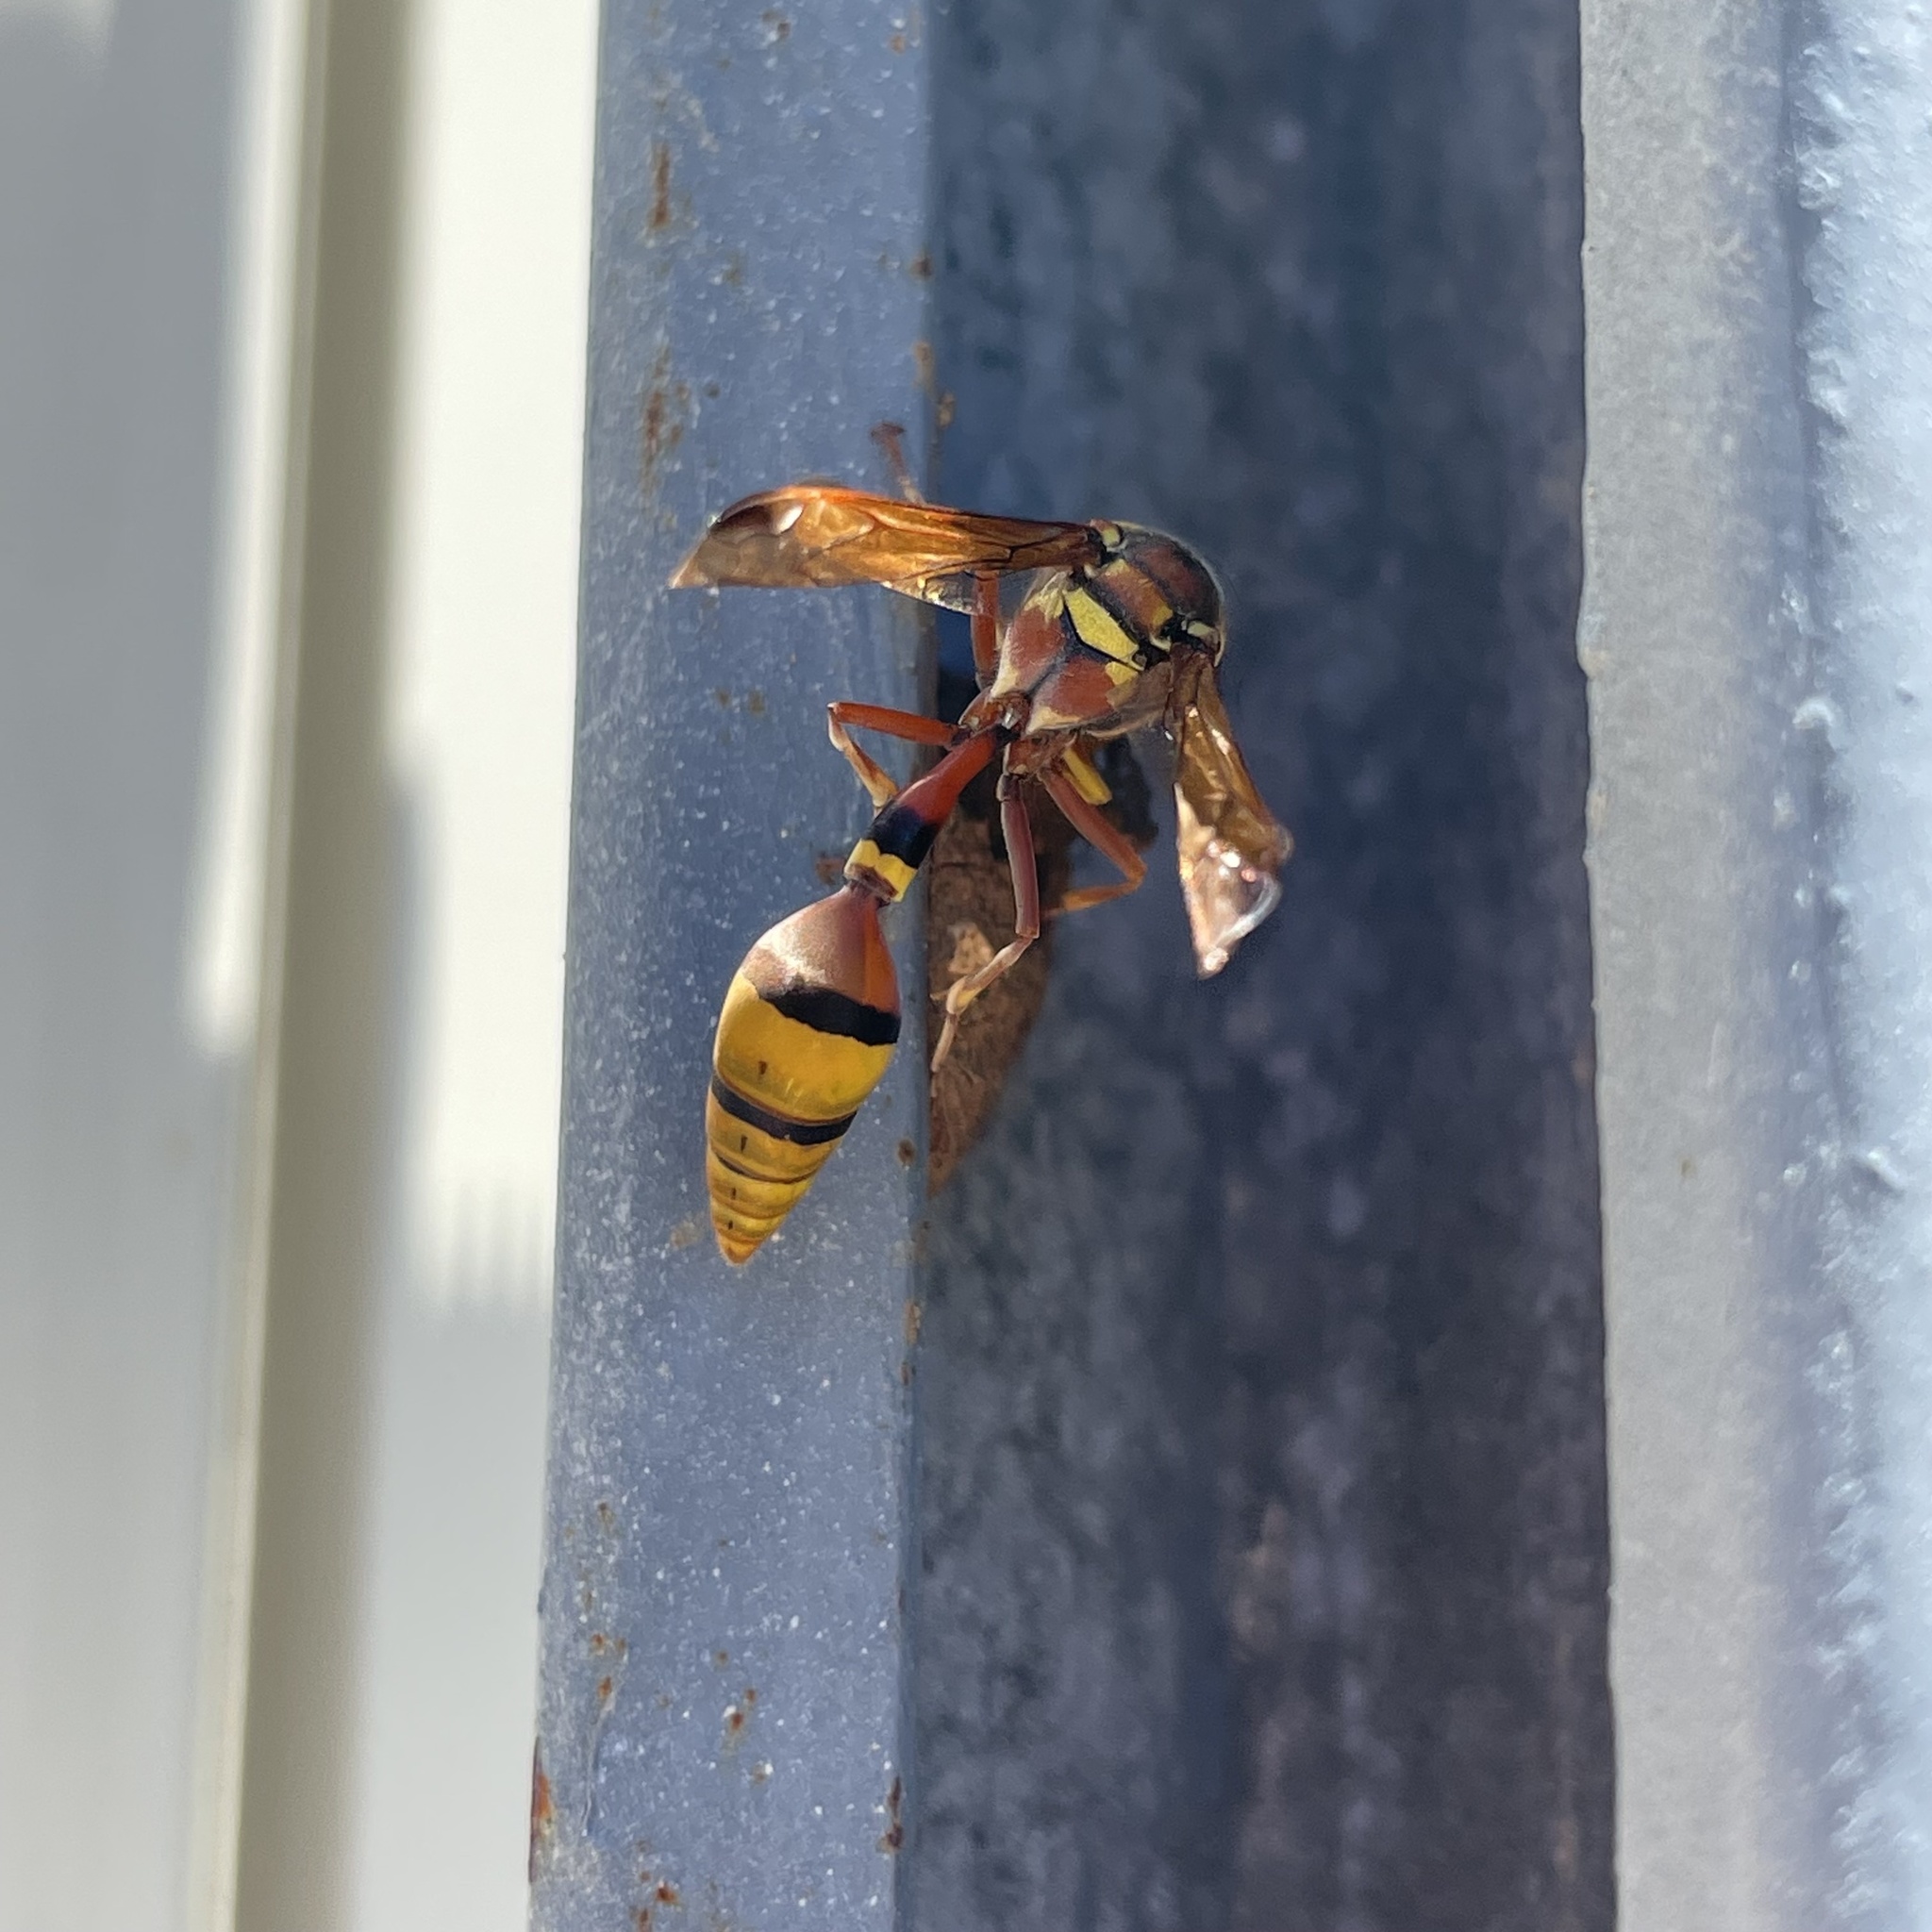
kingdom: Animalia
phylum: Arthropoda
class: Insecta
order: Hymenoptera
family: Eumenidae
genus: Delta
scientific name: Delta esuriens
